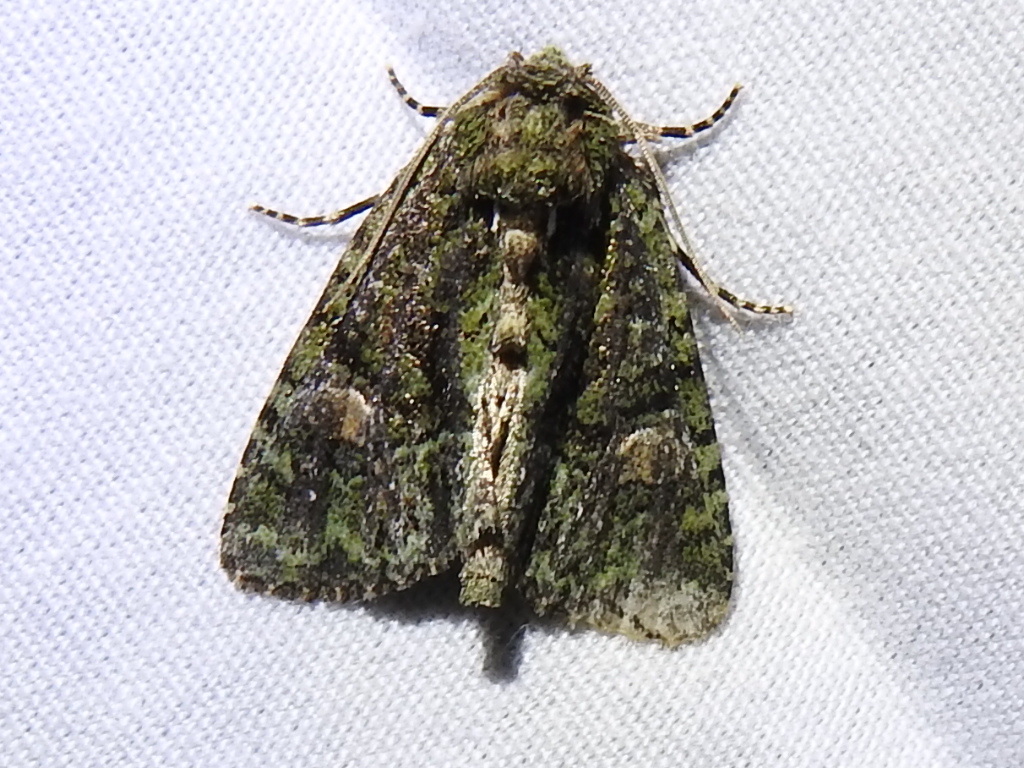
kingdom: Animalia
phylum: Arthropoda
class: Insecta
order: Lepidoptera
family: Noctuidae
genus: Phosphila
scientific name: Phosphila miselioides
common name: Spotted phosphila moth
